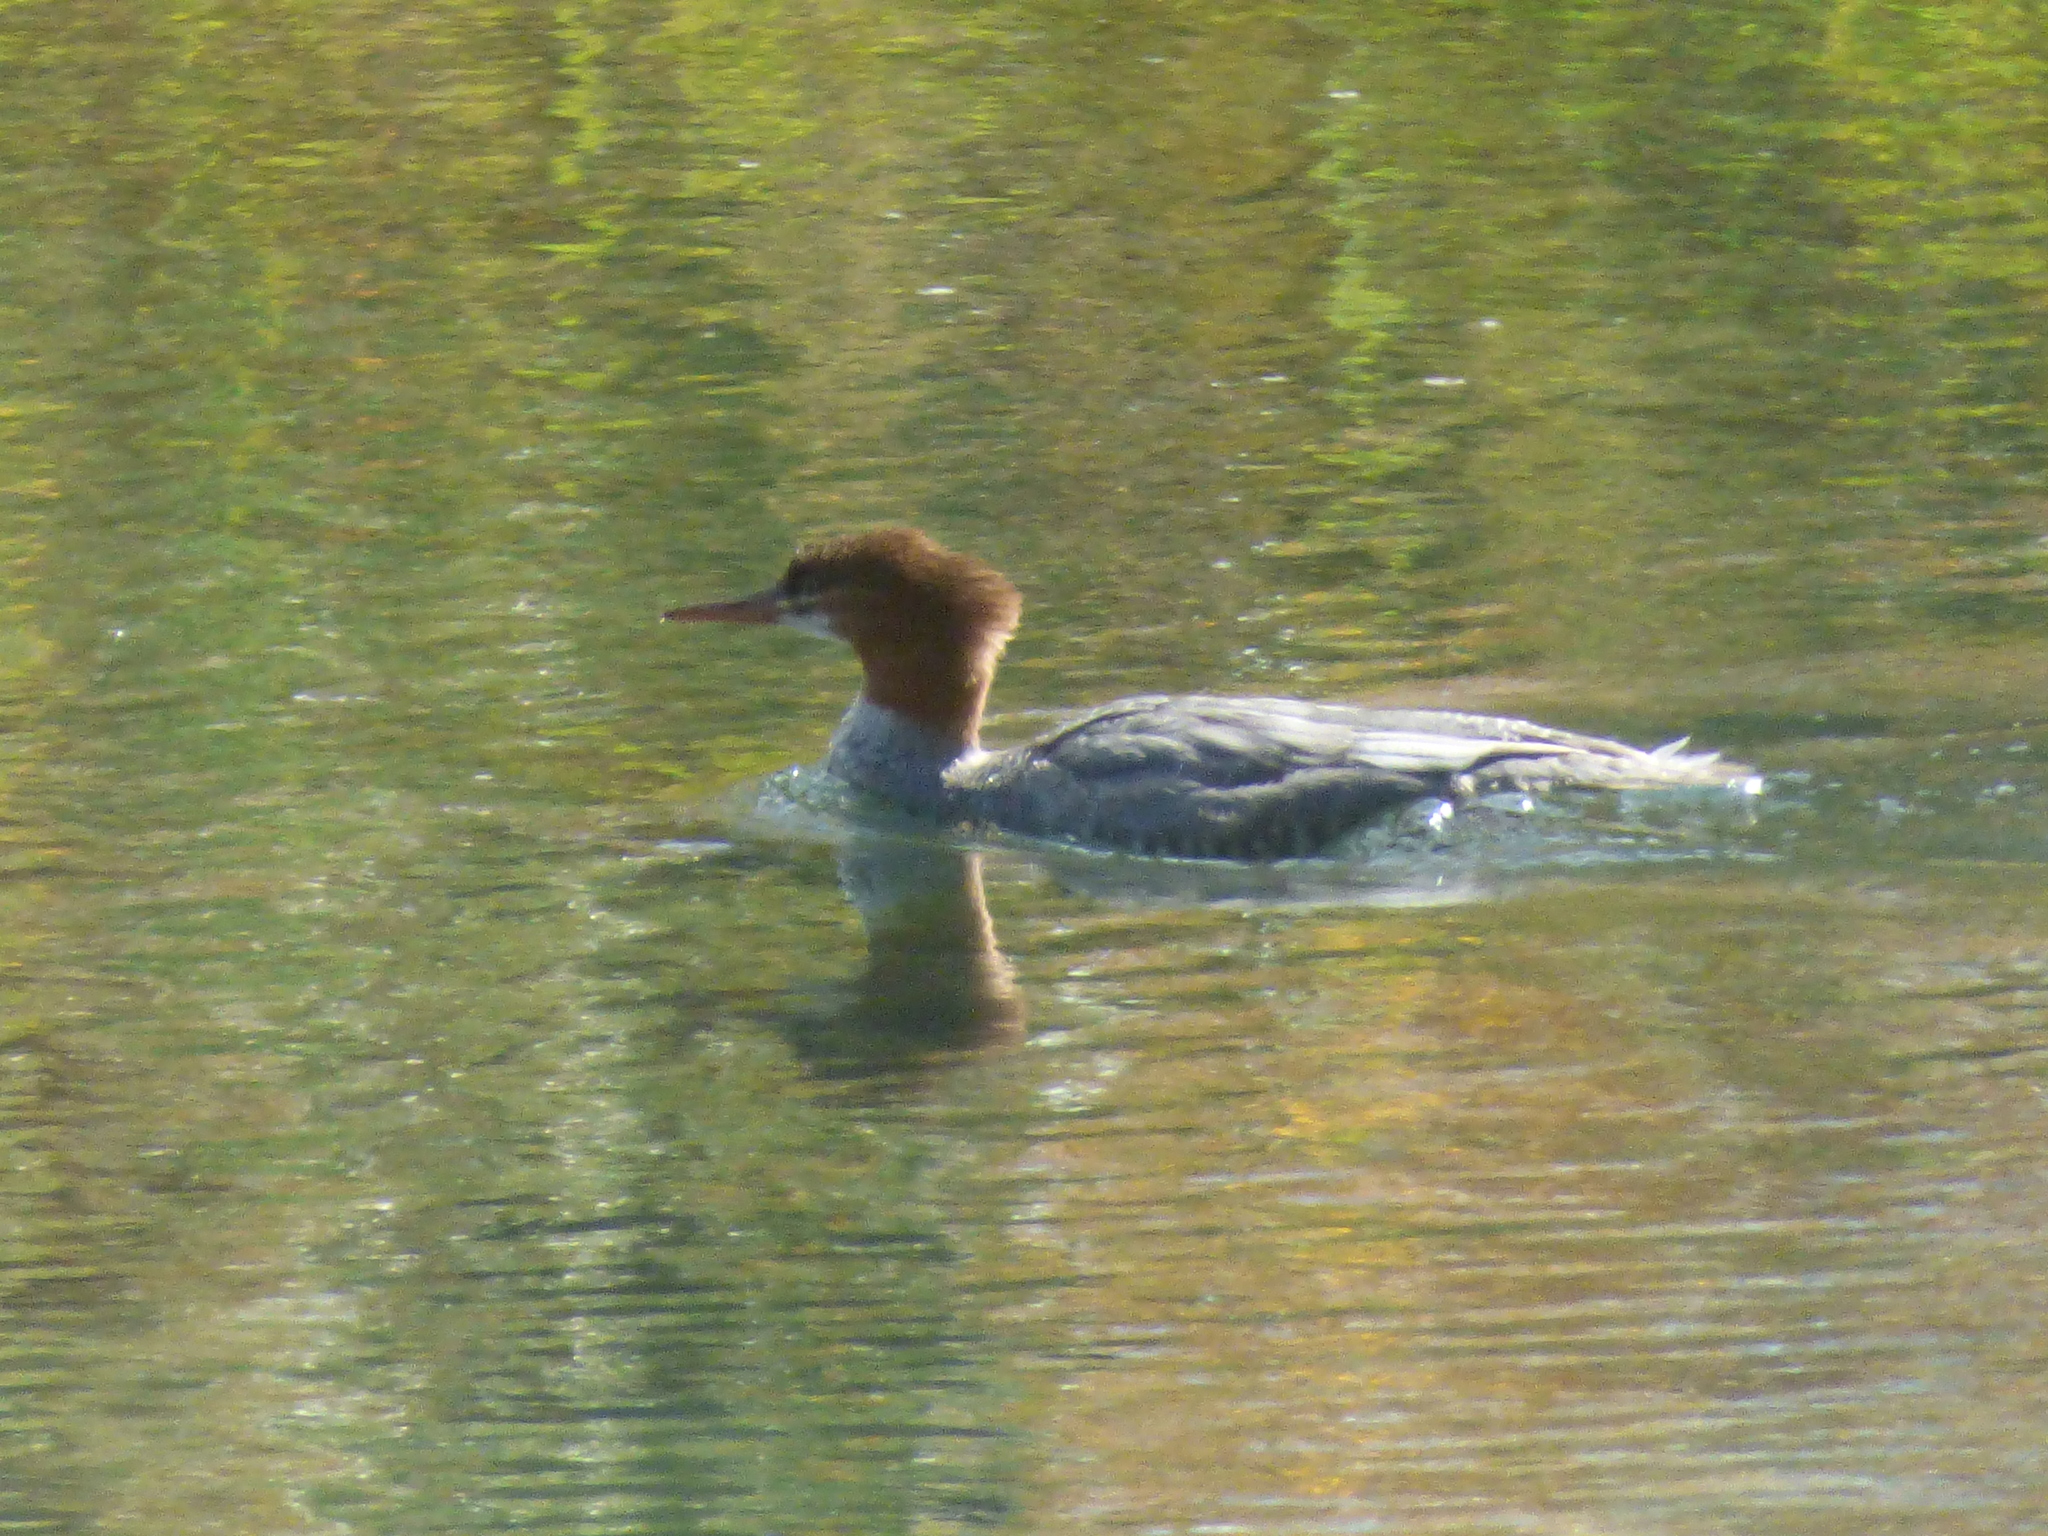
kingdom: Animalia
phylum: Chordata
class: Aves
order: Anseriformes
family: Anatidae
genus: Mergus
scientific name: Mergus merganser
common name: Common merganser
